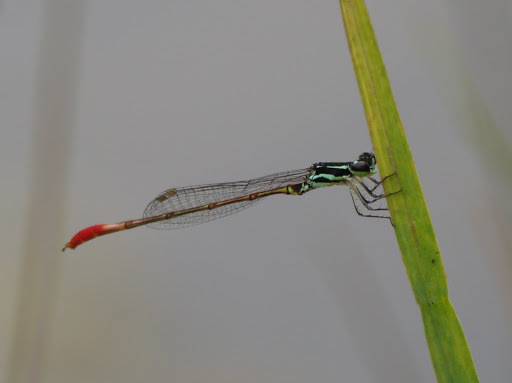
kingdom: Animalia
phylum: Arthropoda
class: Insecta
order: Odonata
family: Coenagrionidae
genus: Agriocnemis
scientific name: Agriocnemis forcipata
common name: Forceps wisp
